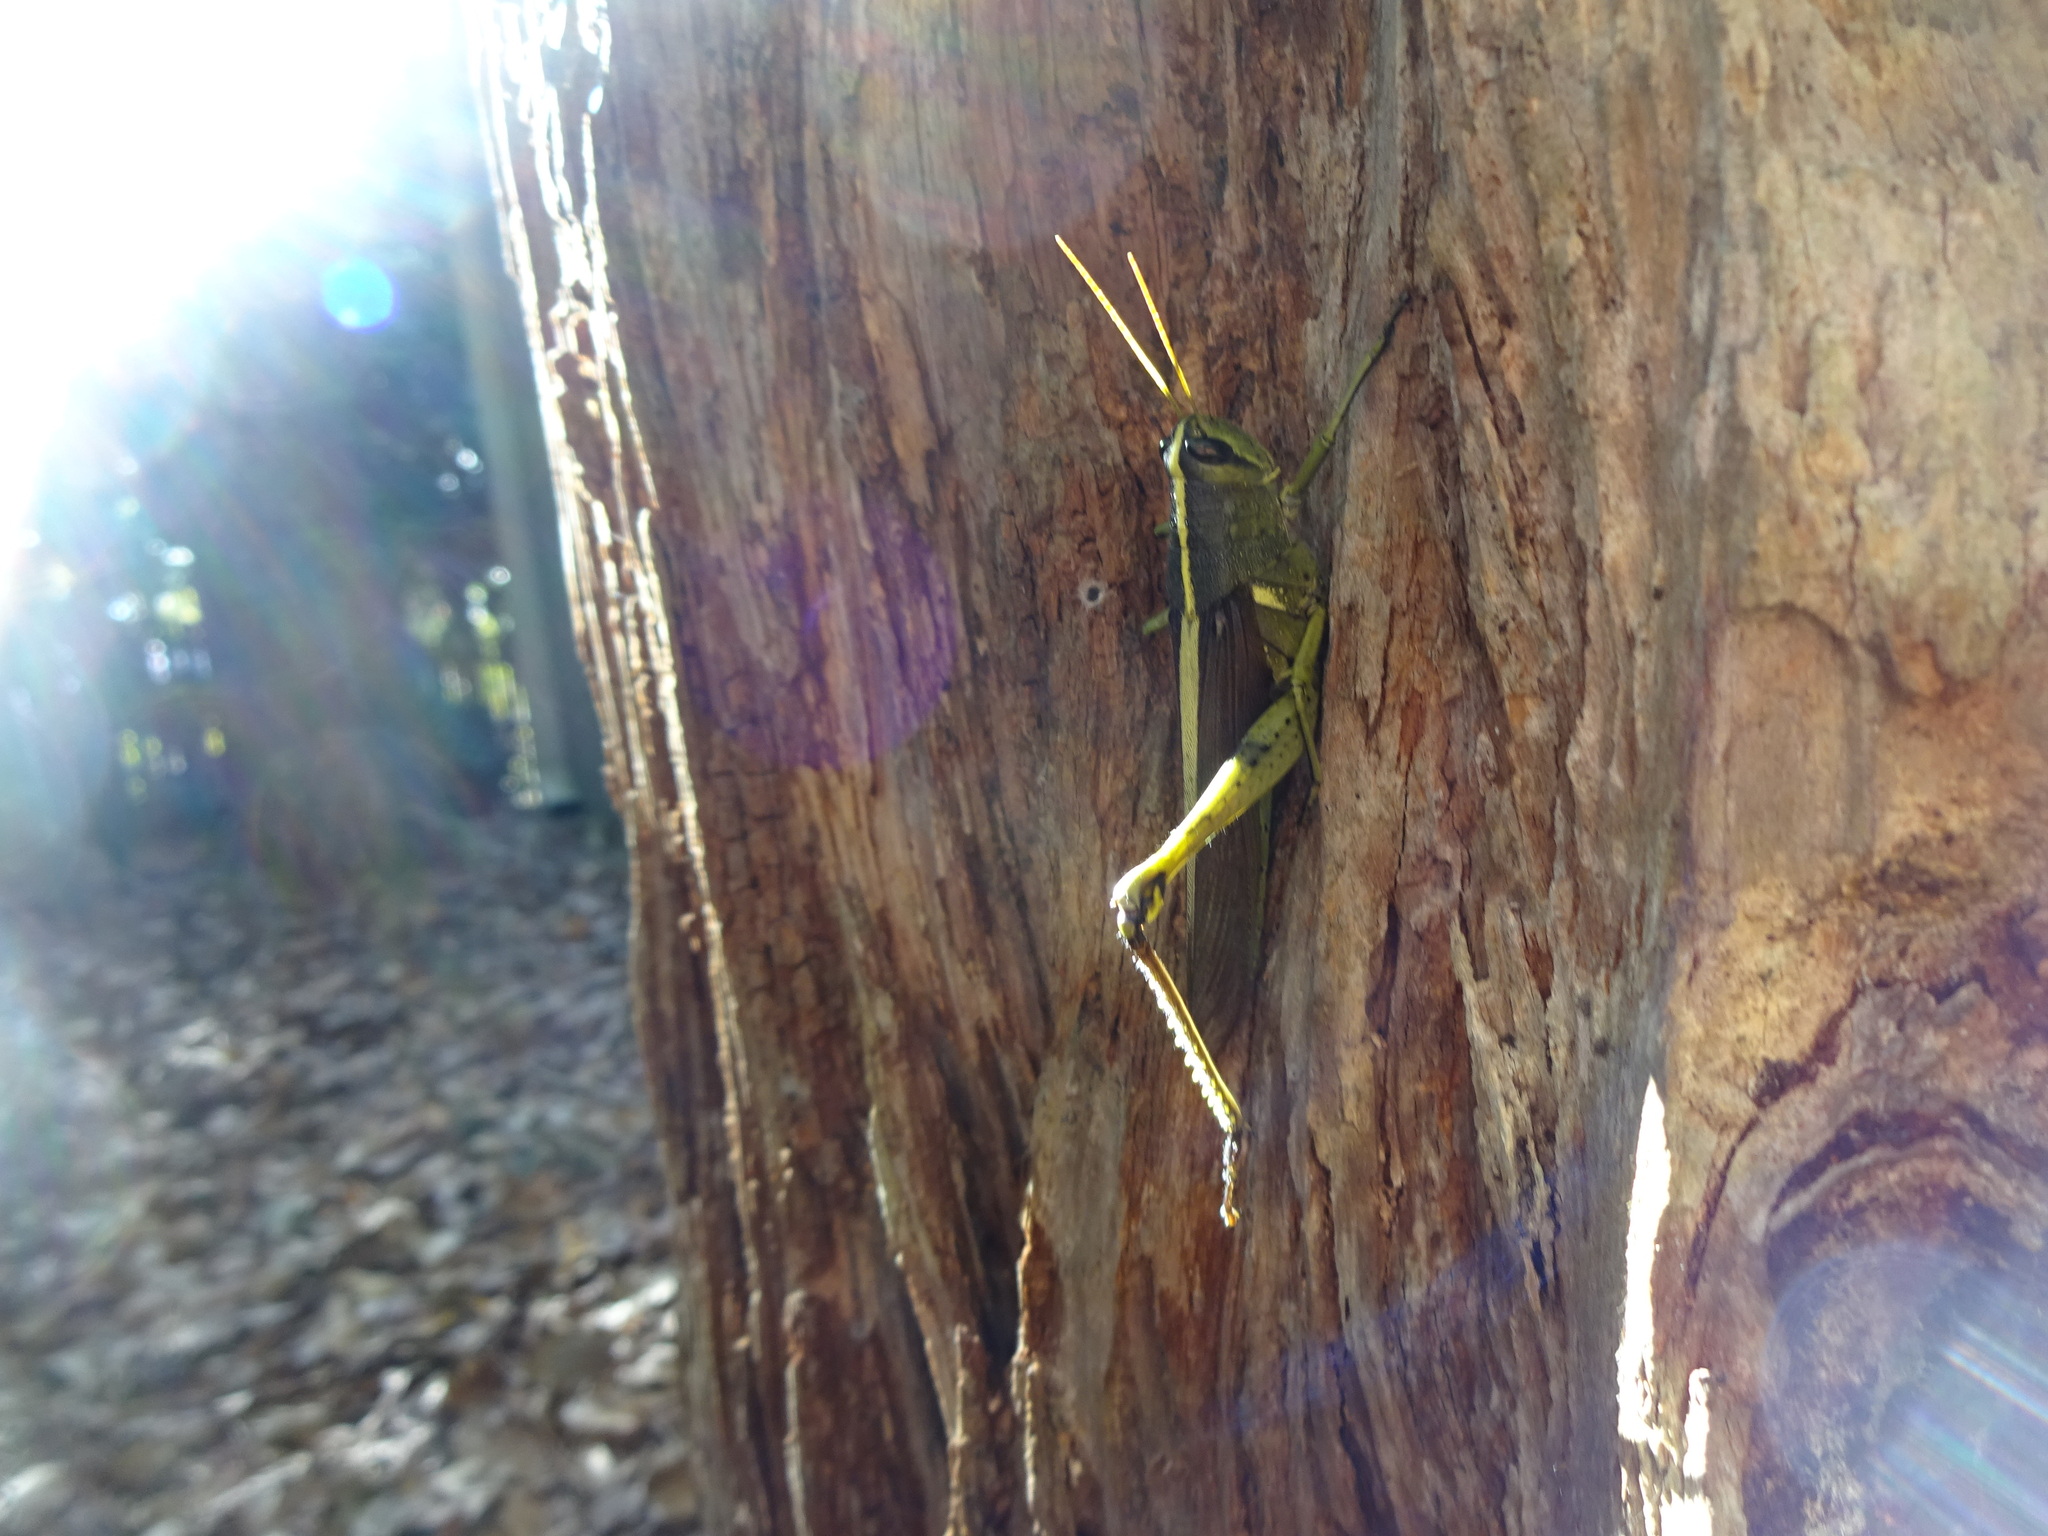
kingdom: Animalia
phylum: Arthropoda
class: Insecta
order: Orthoptera
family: Acrididae
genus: Schistocerca
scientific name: Schistocerca obscura
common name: Obscure bird grasshopper
